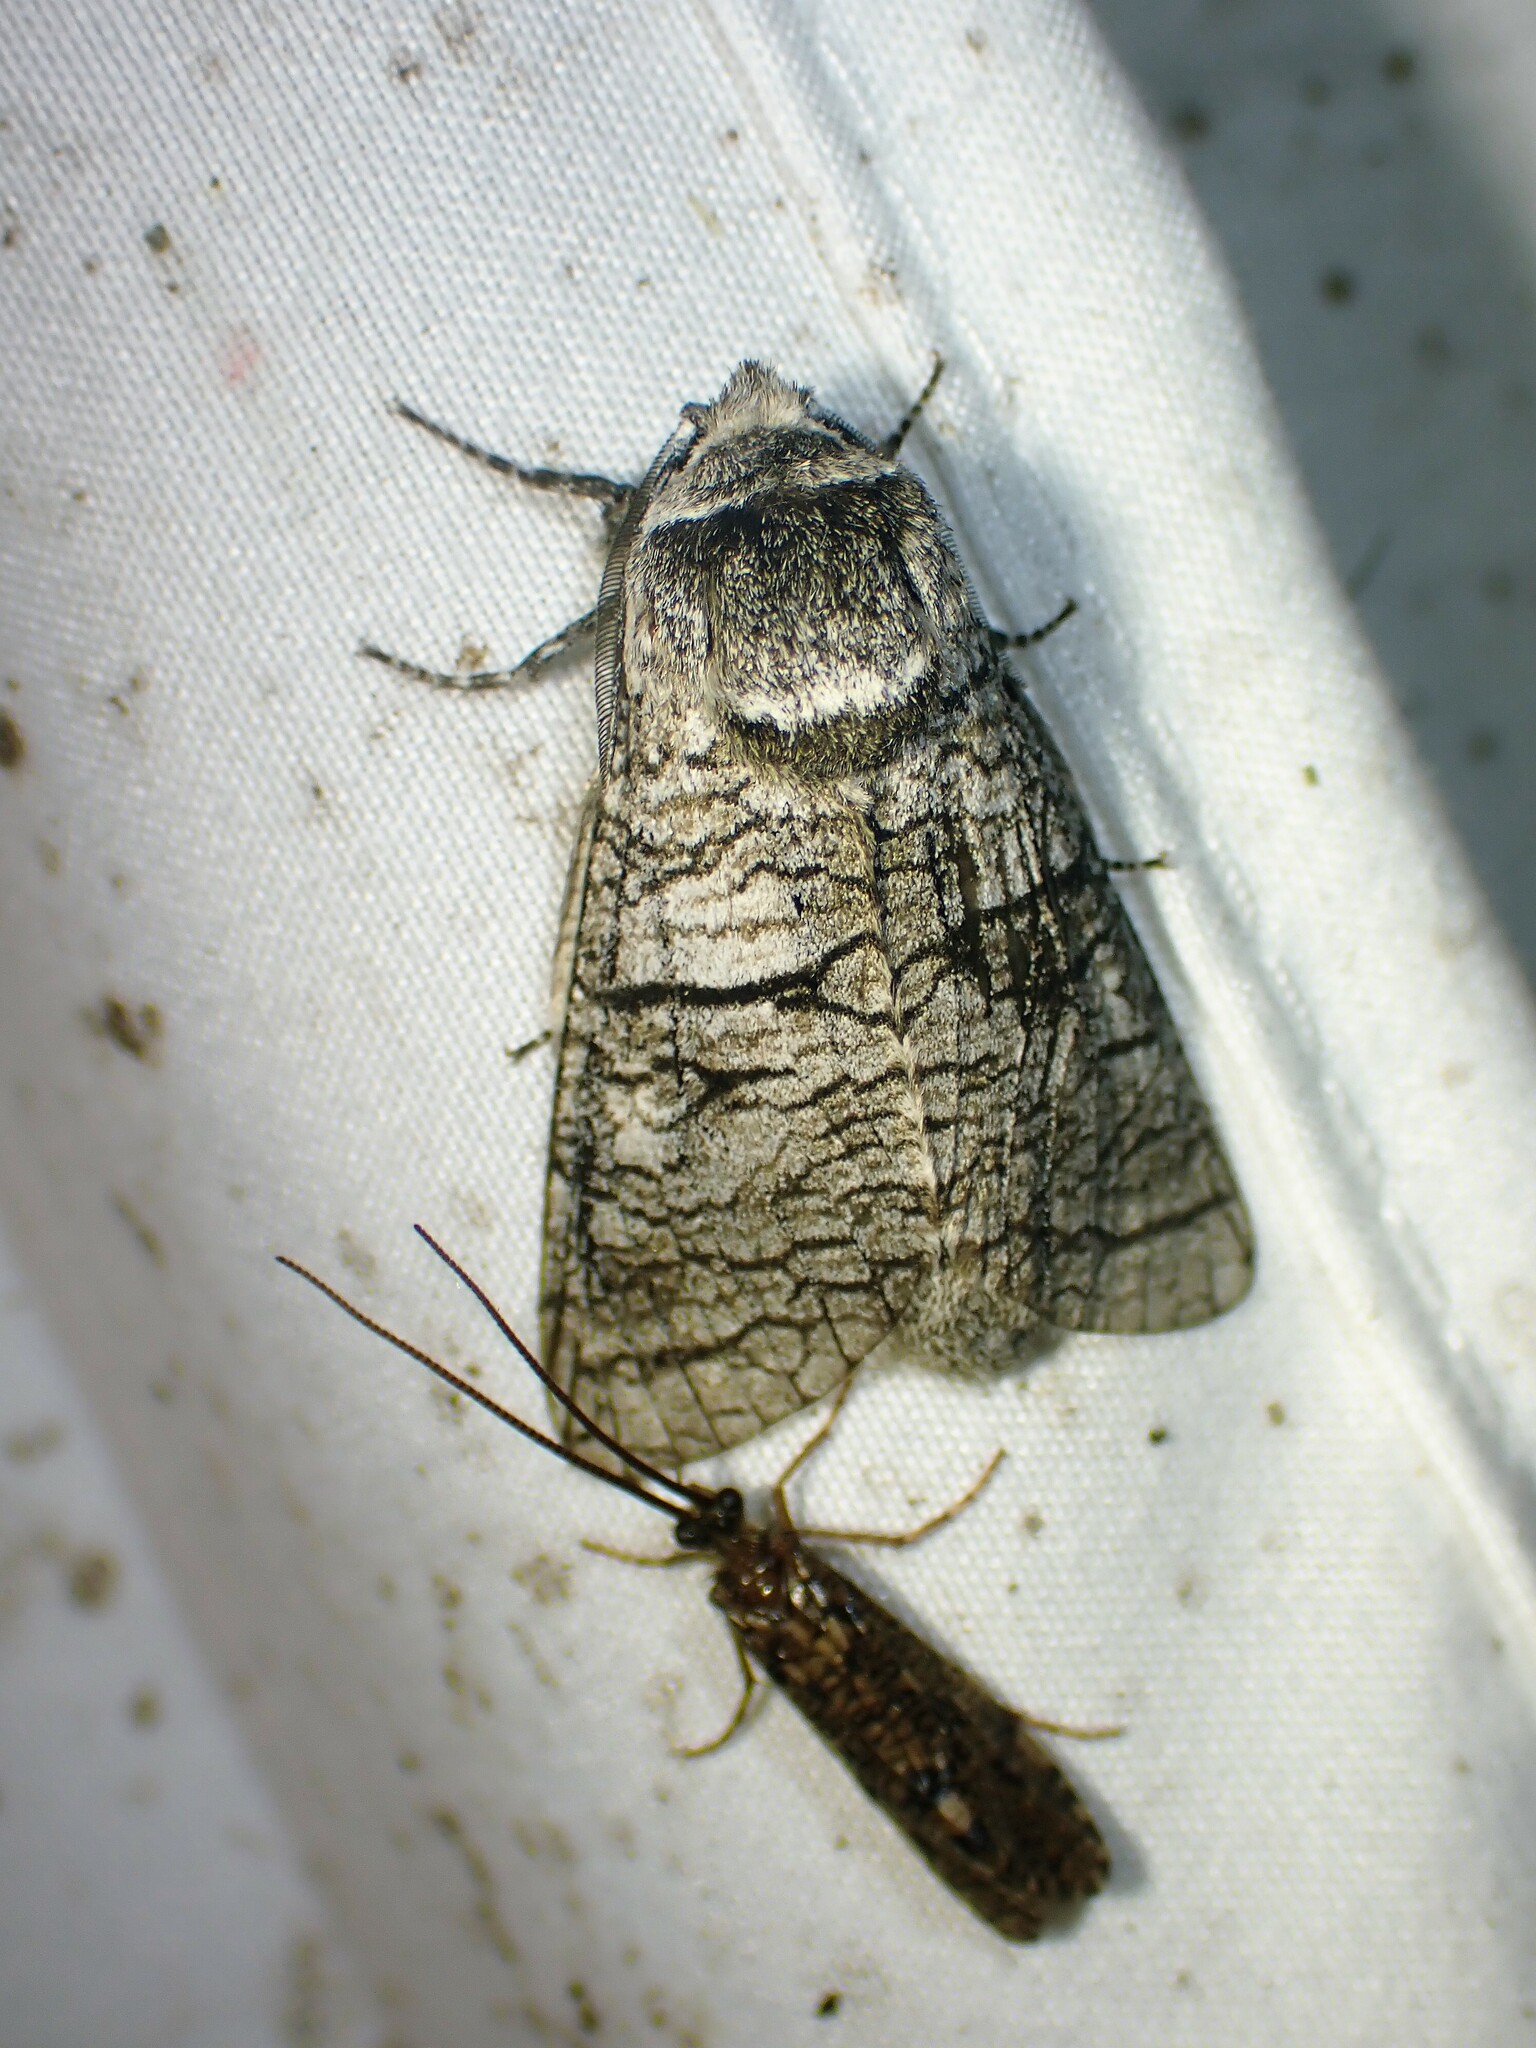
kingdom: Animalia
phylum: Arthropoda
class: Insecta
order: Lepidoptera
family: Cossidae
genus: Acossus
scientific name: Acossus populi
